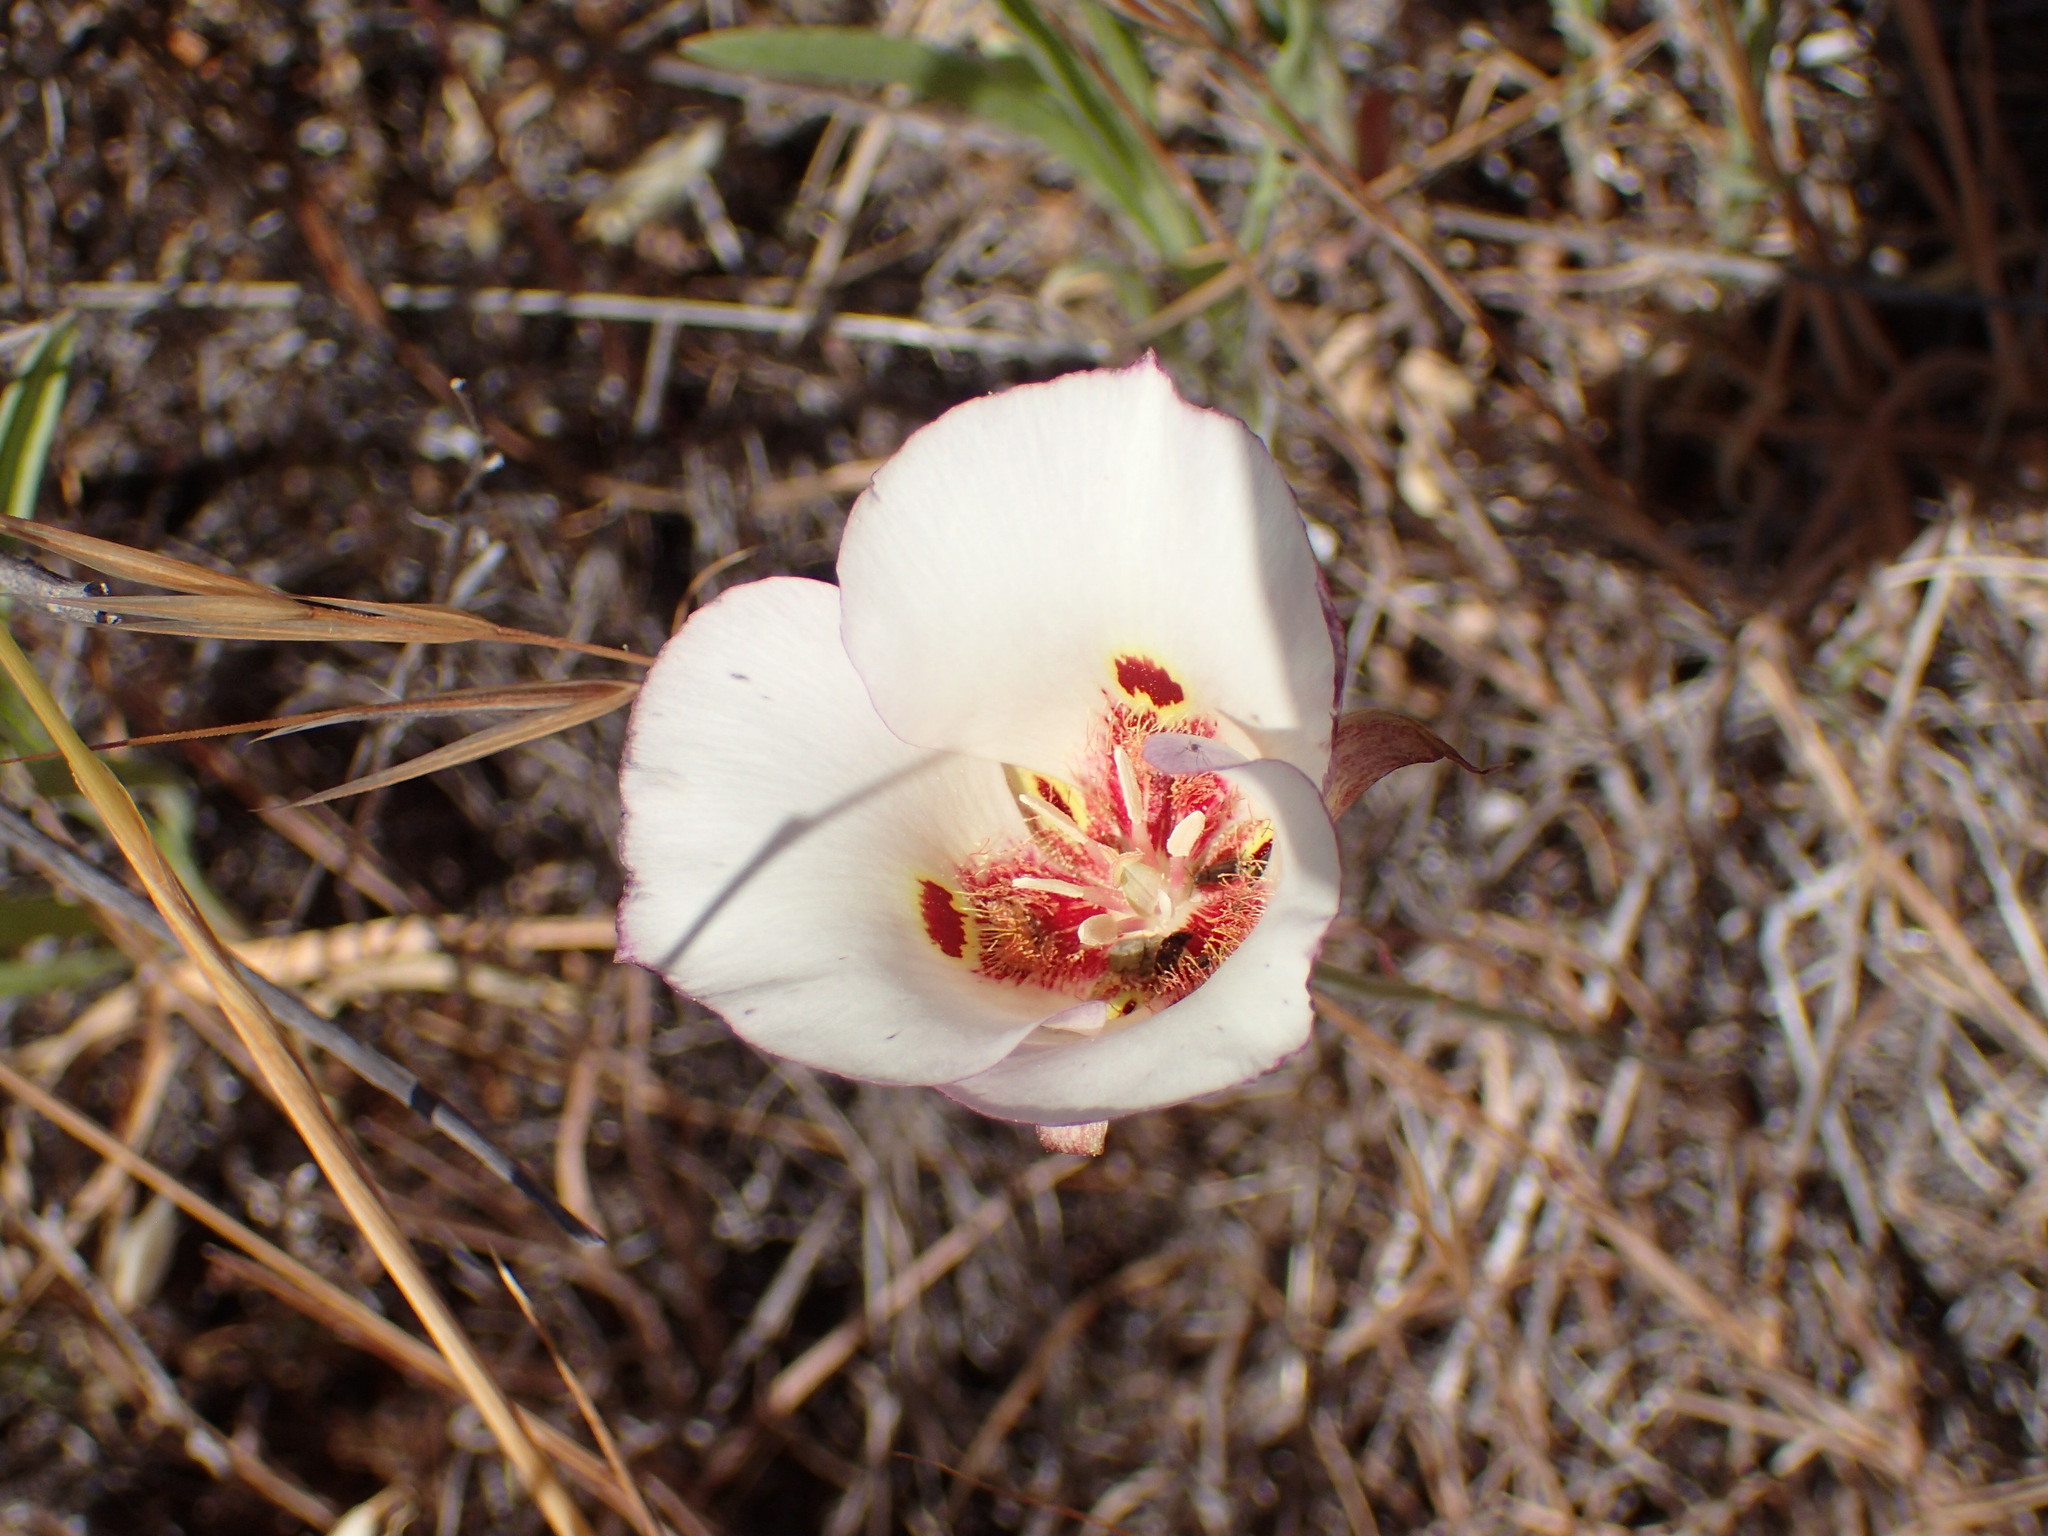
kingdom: Plantae
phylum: Tracheophyta
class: Liliopsida
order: Liliales
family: Liliaceae
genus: Calochortus
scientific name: Calochortus venustus
